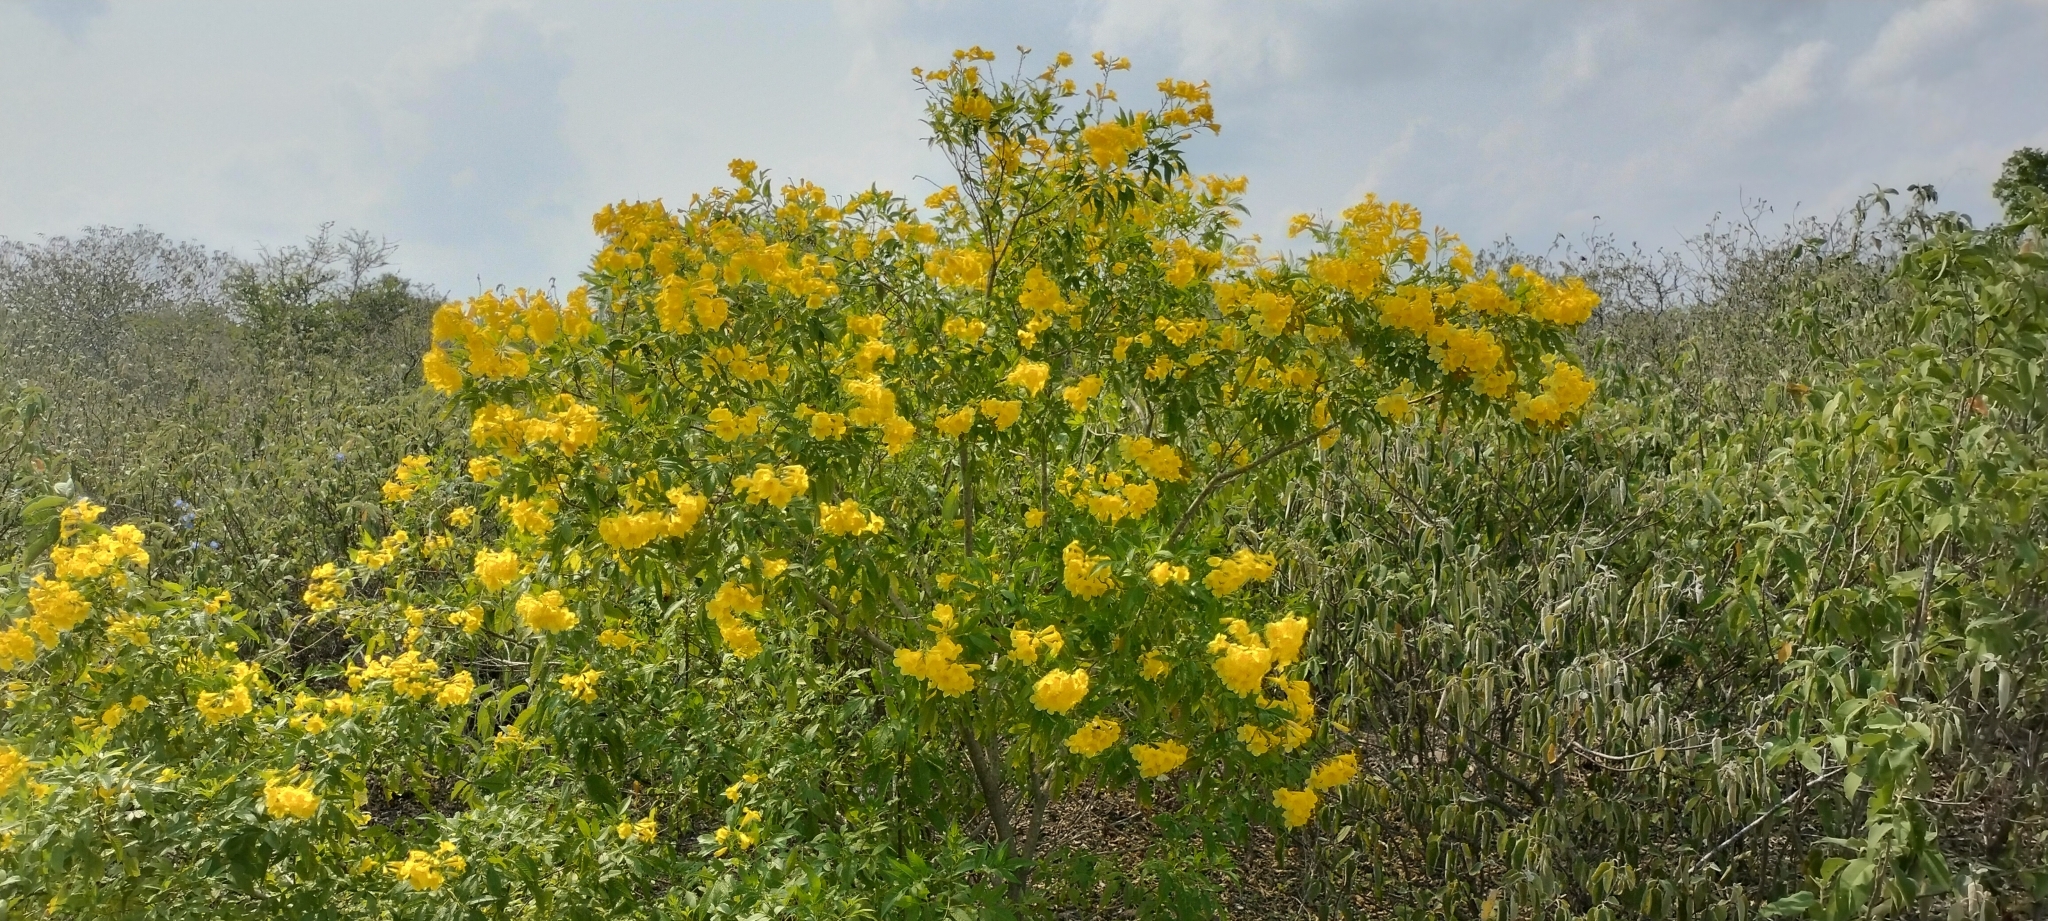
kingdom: Plantae
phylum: Tracheophyta
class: Magnoliopsida
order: Lamiales
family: Bignoniaceae
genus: Tecoma
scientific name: Tecoma stans
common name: Yellow trumpetbush
